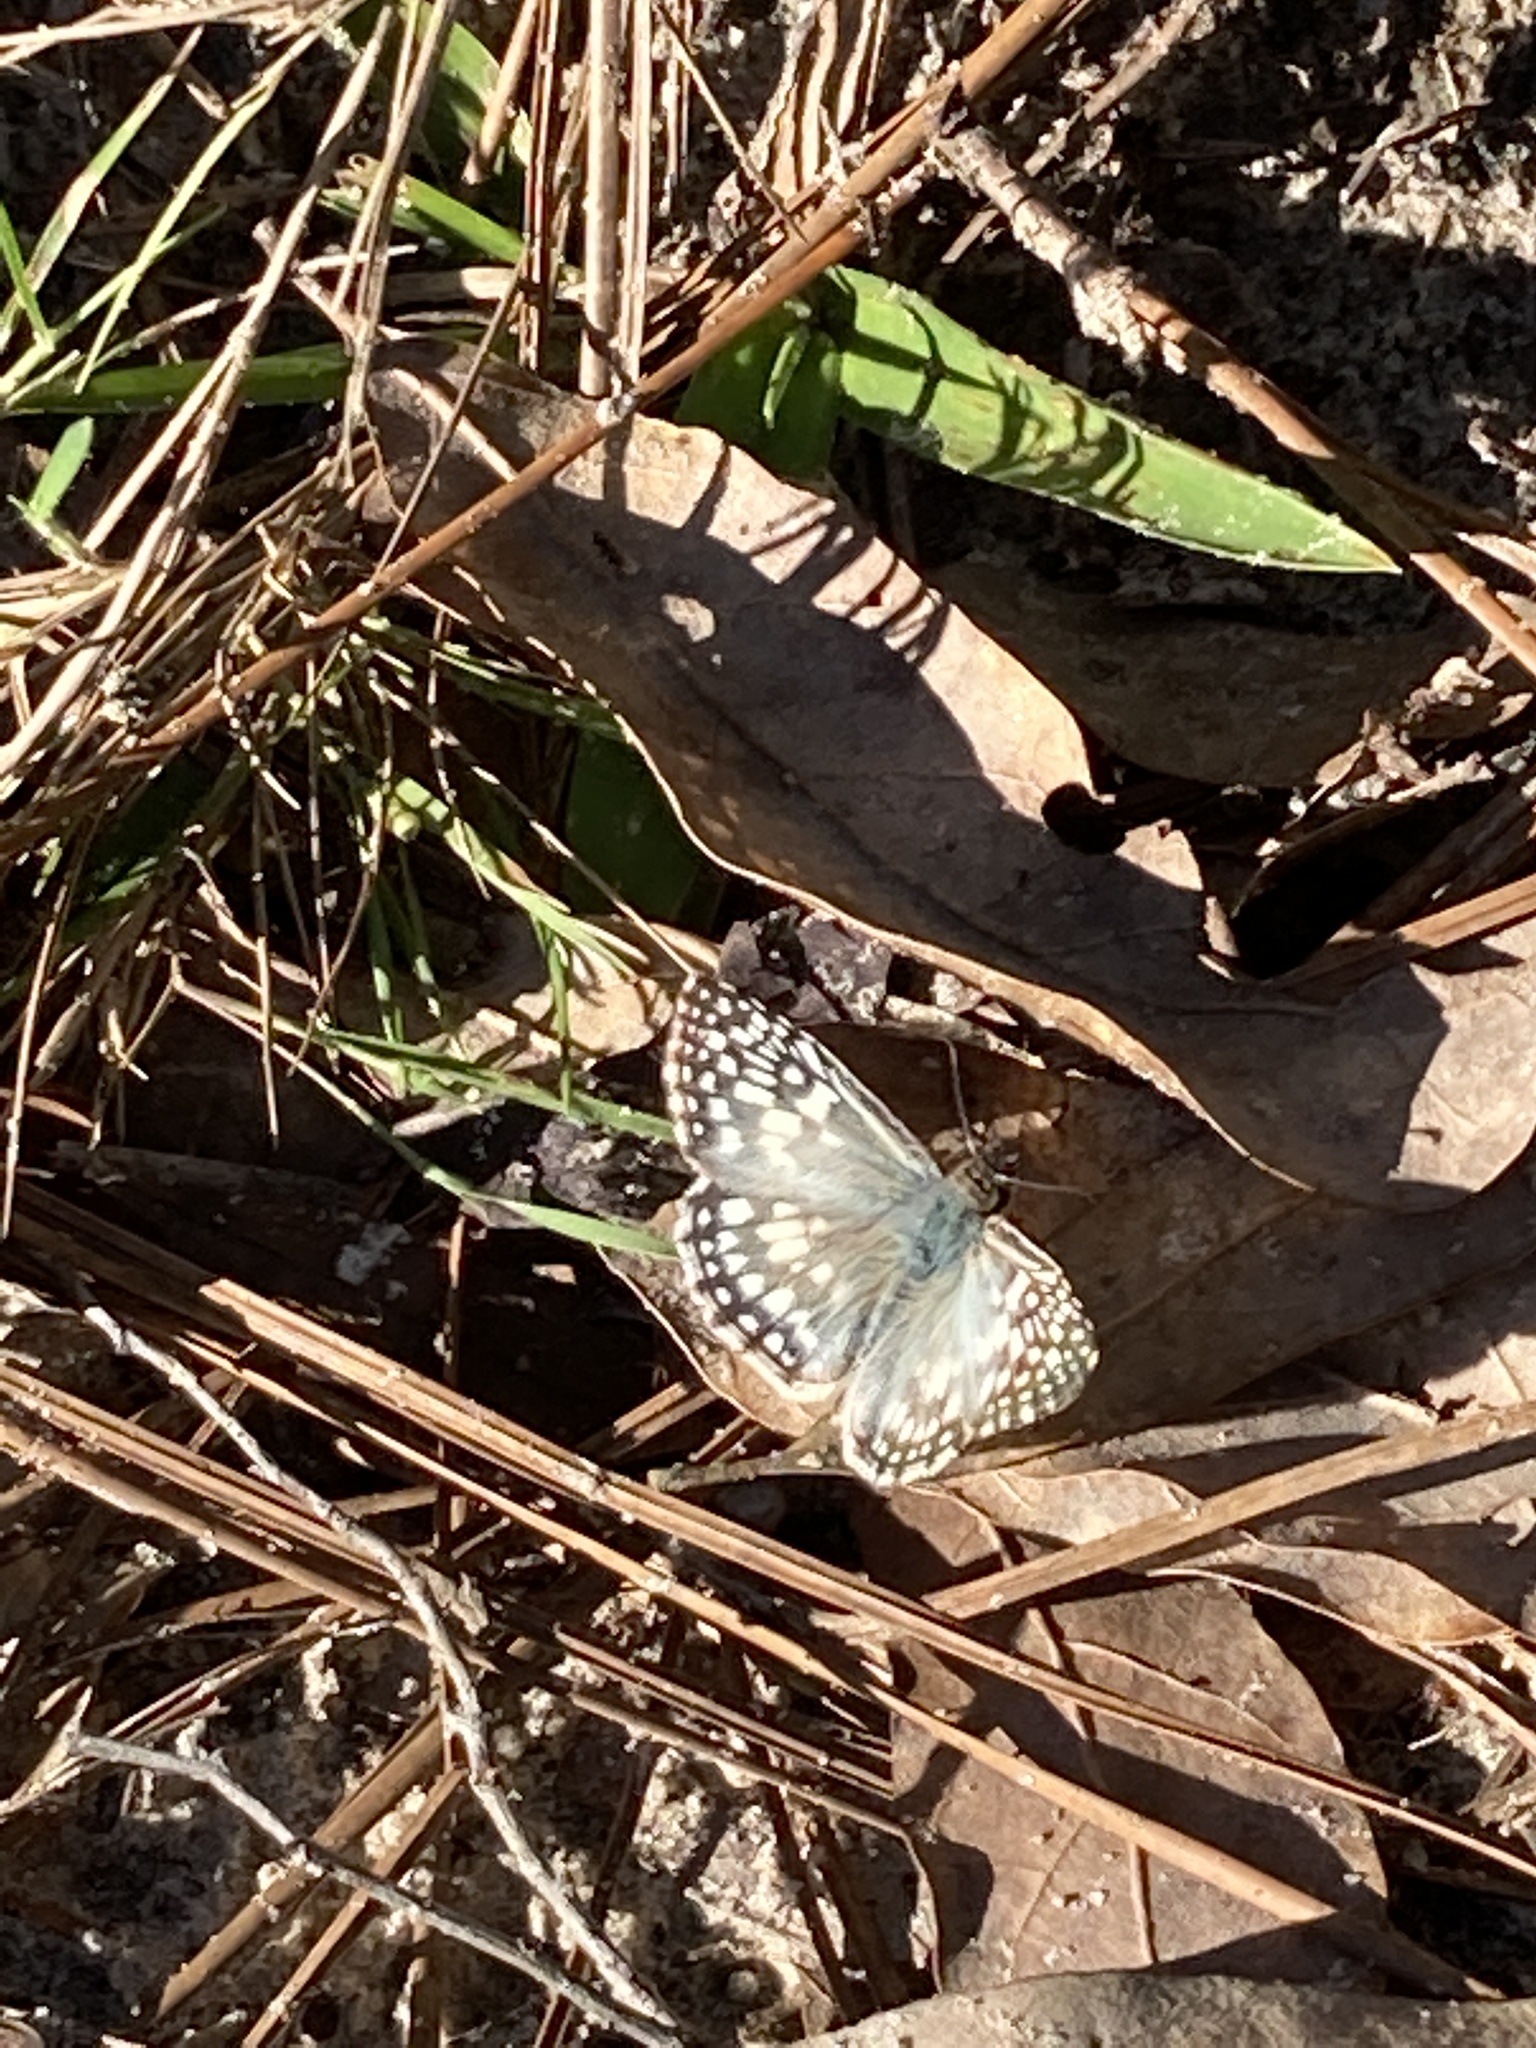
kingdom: Animalia
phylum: Arthropoda
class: Insecta
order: Lepidoptera
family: Hesperiidae
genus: Pyrgus
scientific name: Pyrgus oileus
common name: Tropical checkered-skipper
